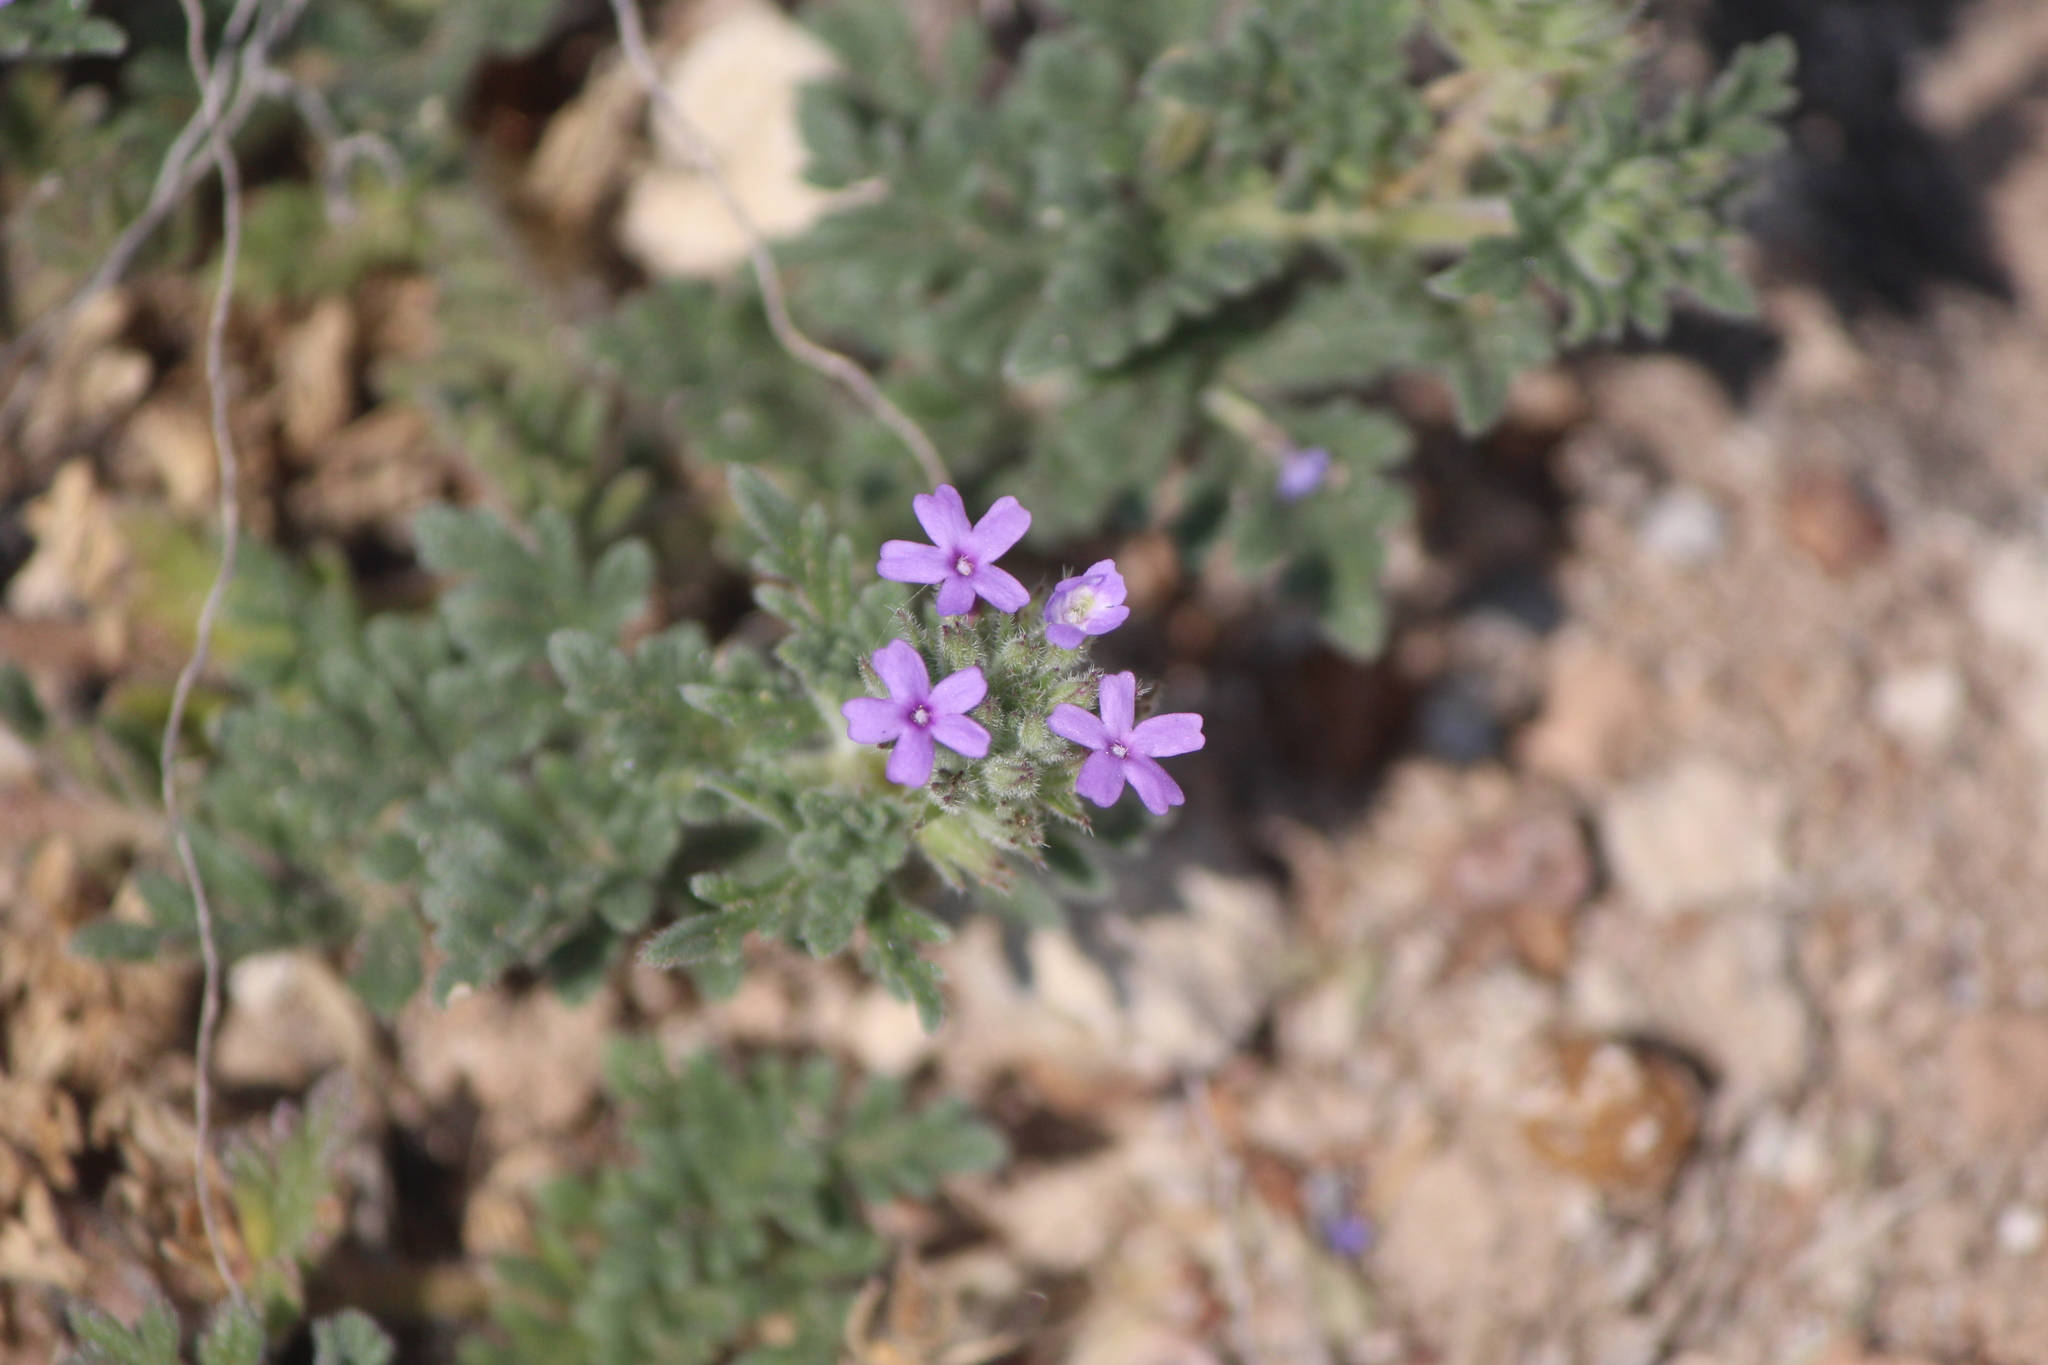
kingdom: Plantae
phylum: Tracheophyta
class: Magnoliopsida
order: Lamiales
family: Verbenaceae
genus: Verbena
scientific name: Verbena teucriifolia
